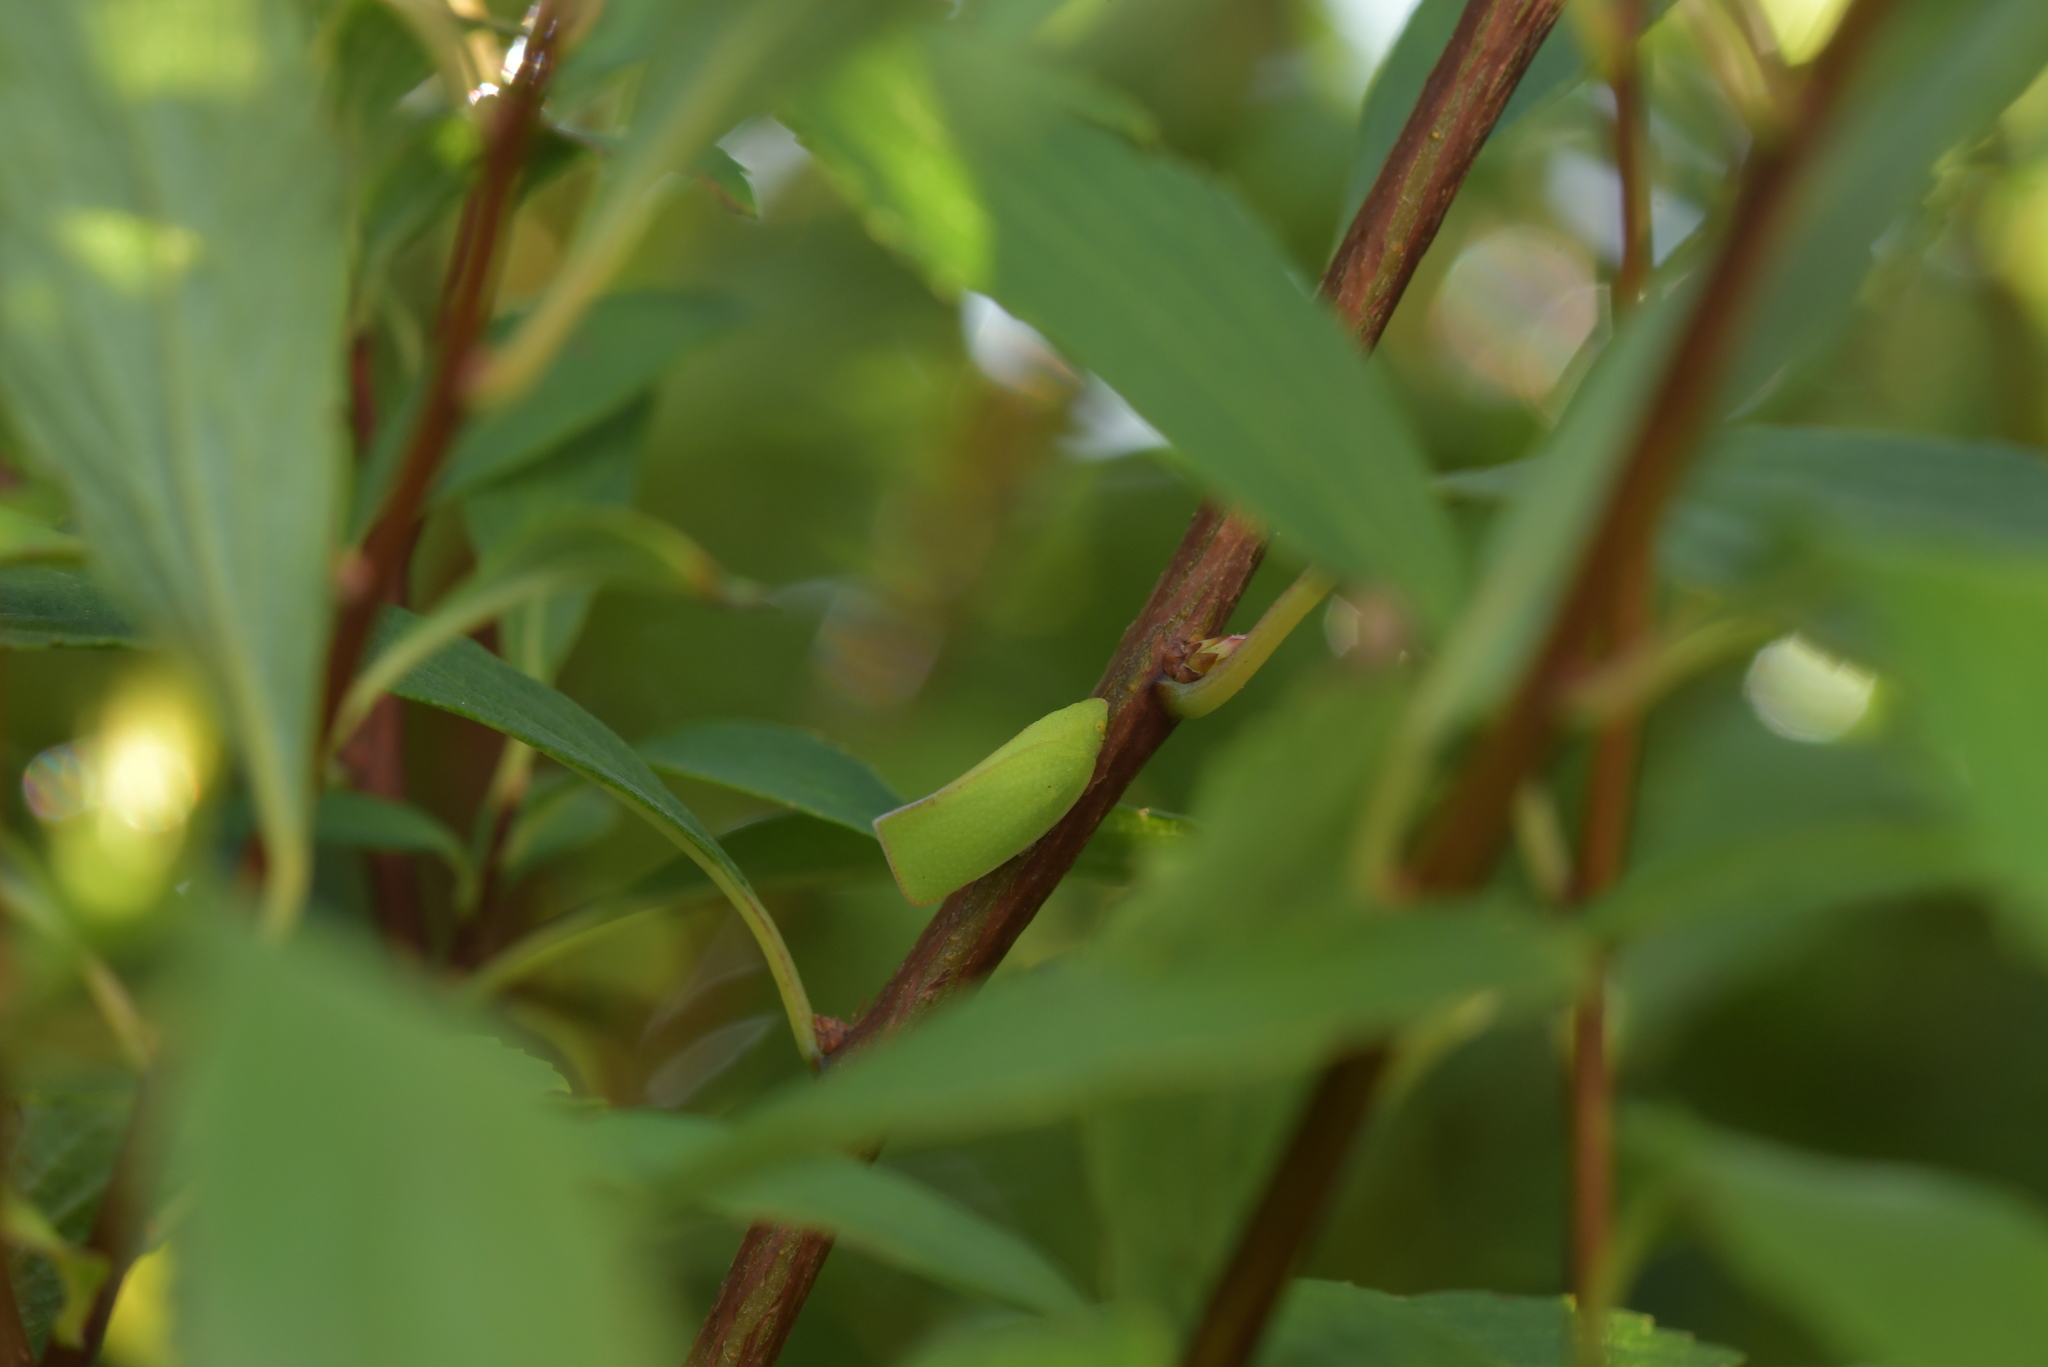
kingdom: Animalia
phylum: Arthropoda
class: Insecta
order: Hemiptera
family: Flatidae
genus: Siphanta
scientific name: Siphanta acuta
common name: Torpedo bug
